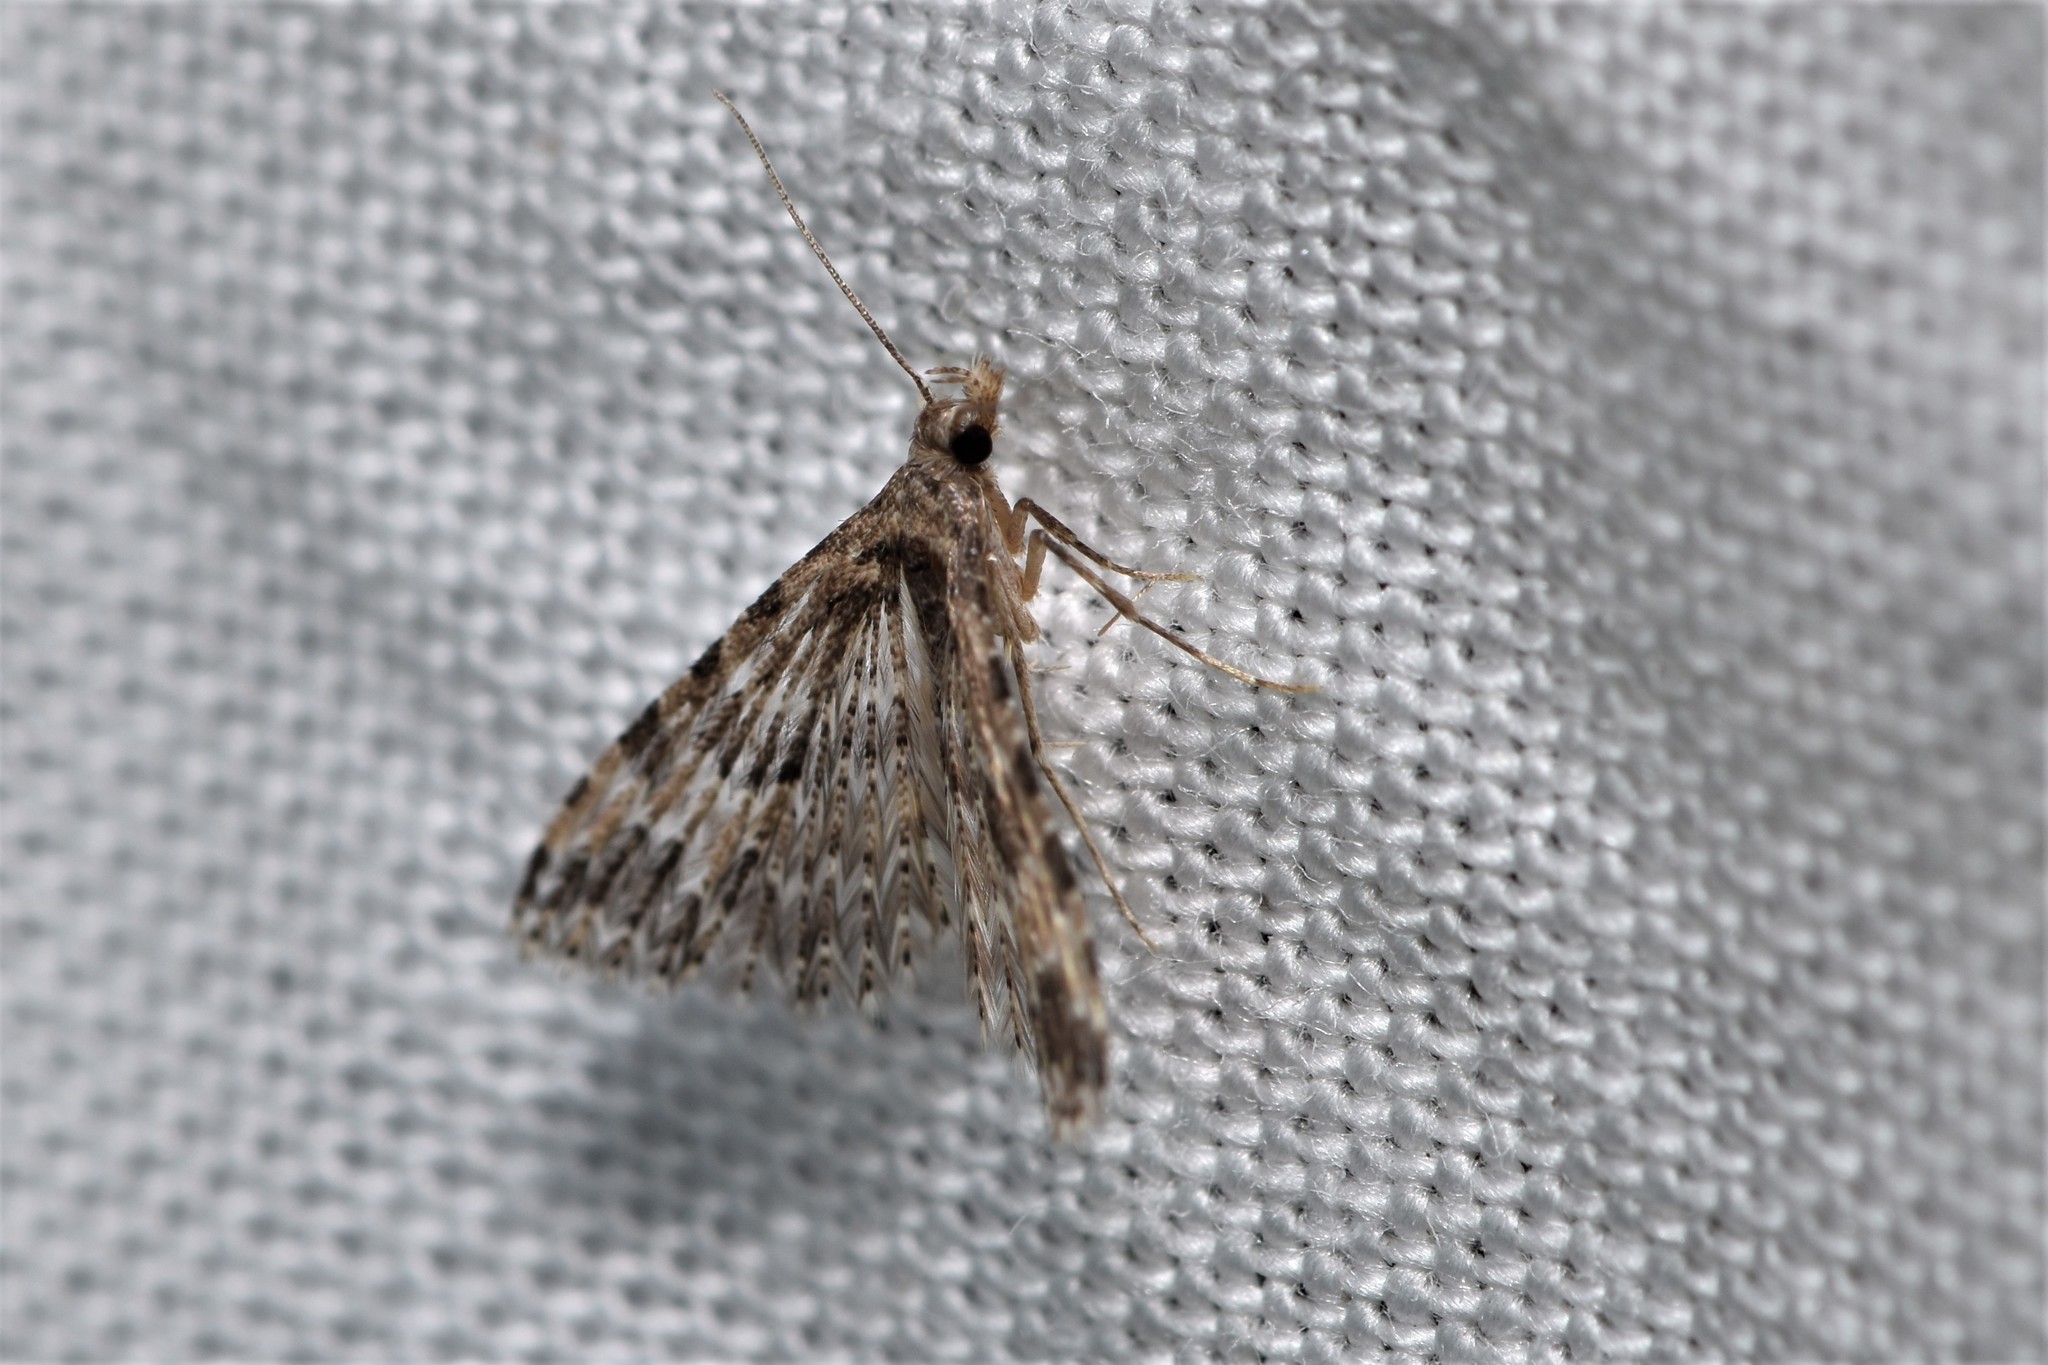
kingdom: Animalia
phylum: Arthropoda
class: Insecta
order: Lepidoptera
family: Alucitidae
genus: Alucita
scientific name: Alucita montana
